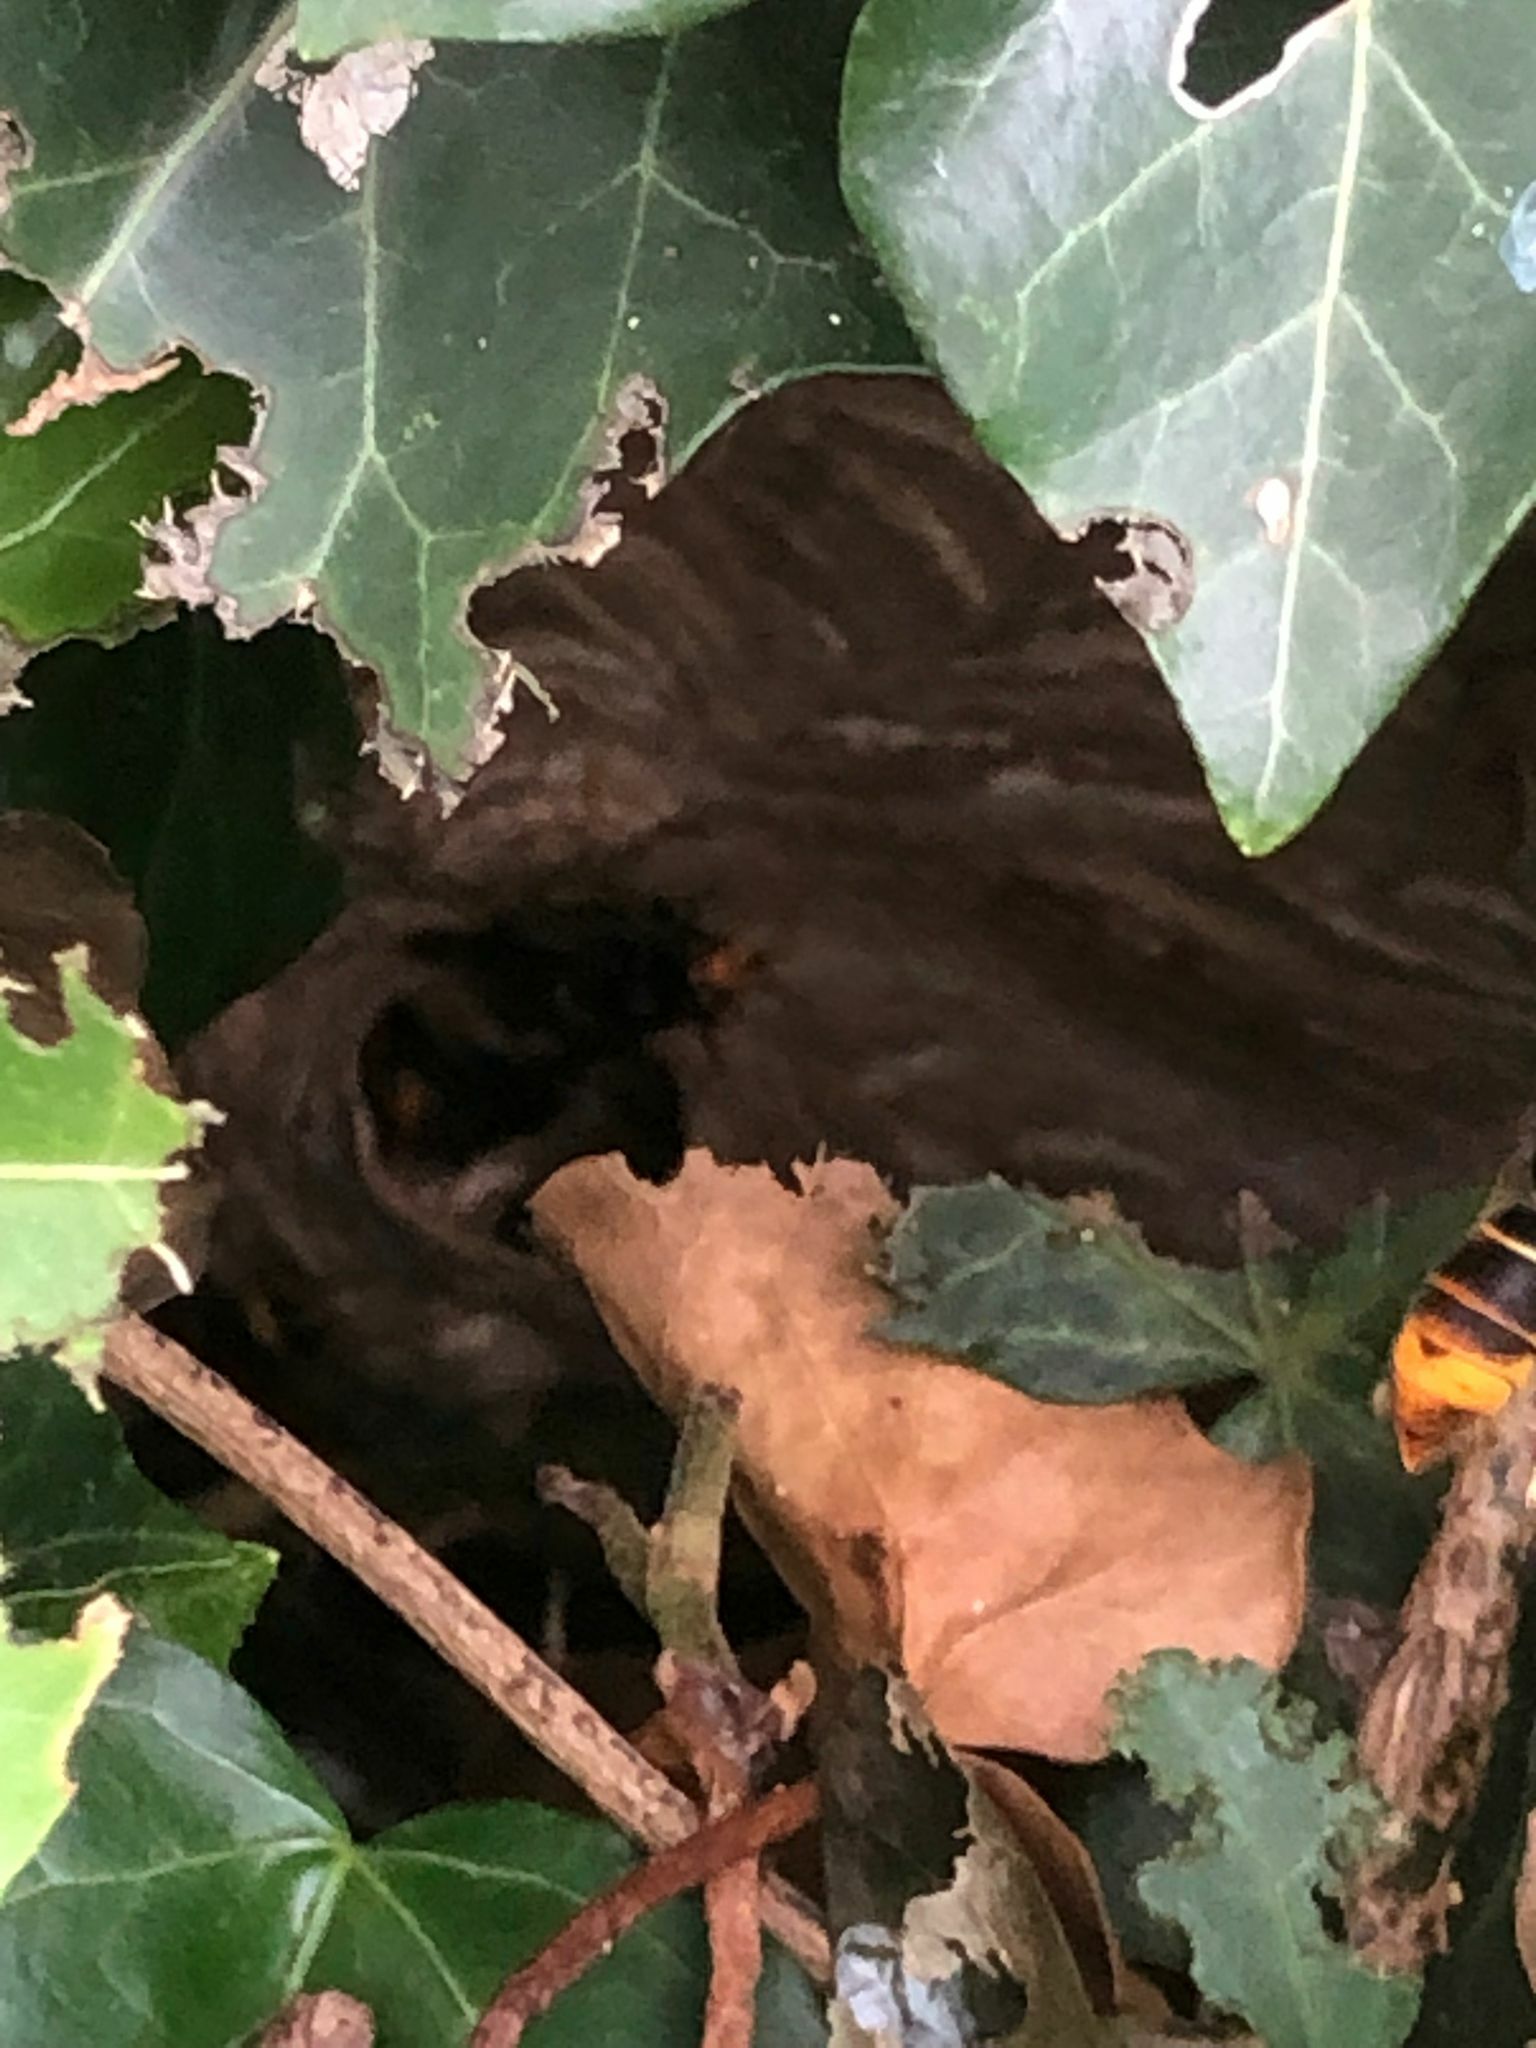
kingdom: Animalia
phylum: Arthropoda
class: Insecta
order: Hymenoptera
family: Vespidae
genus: Vespa
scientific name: Vespa velutina
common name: Asian hornet
